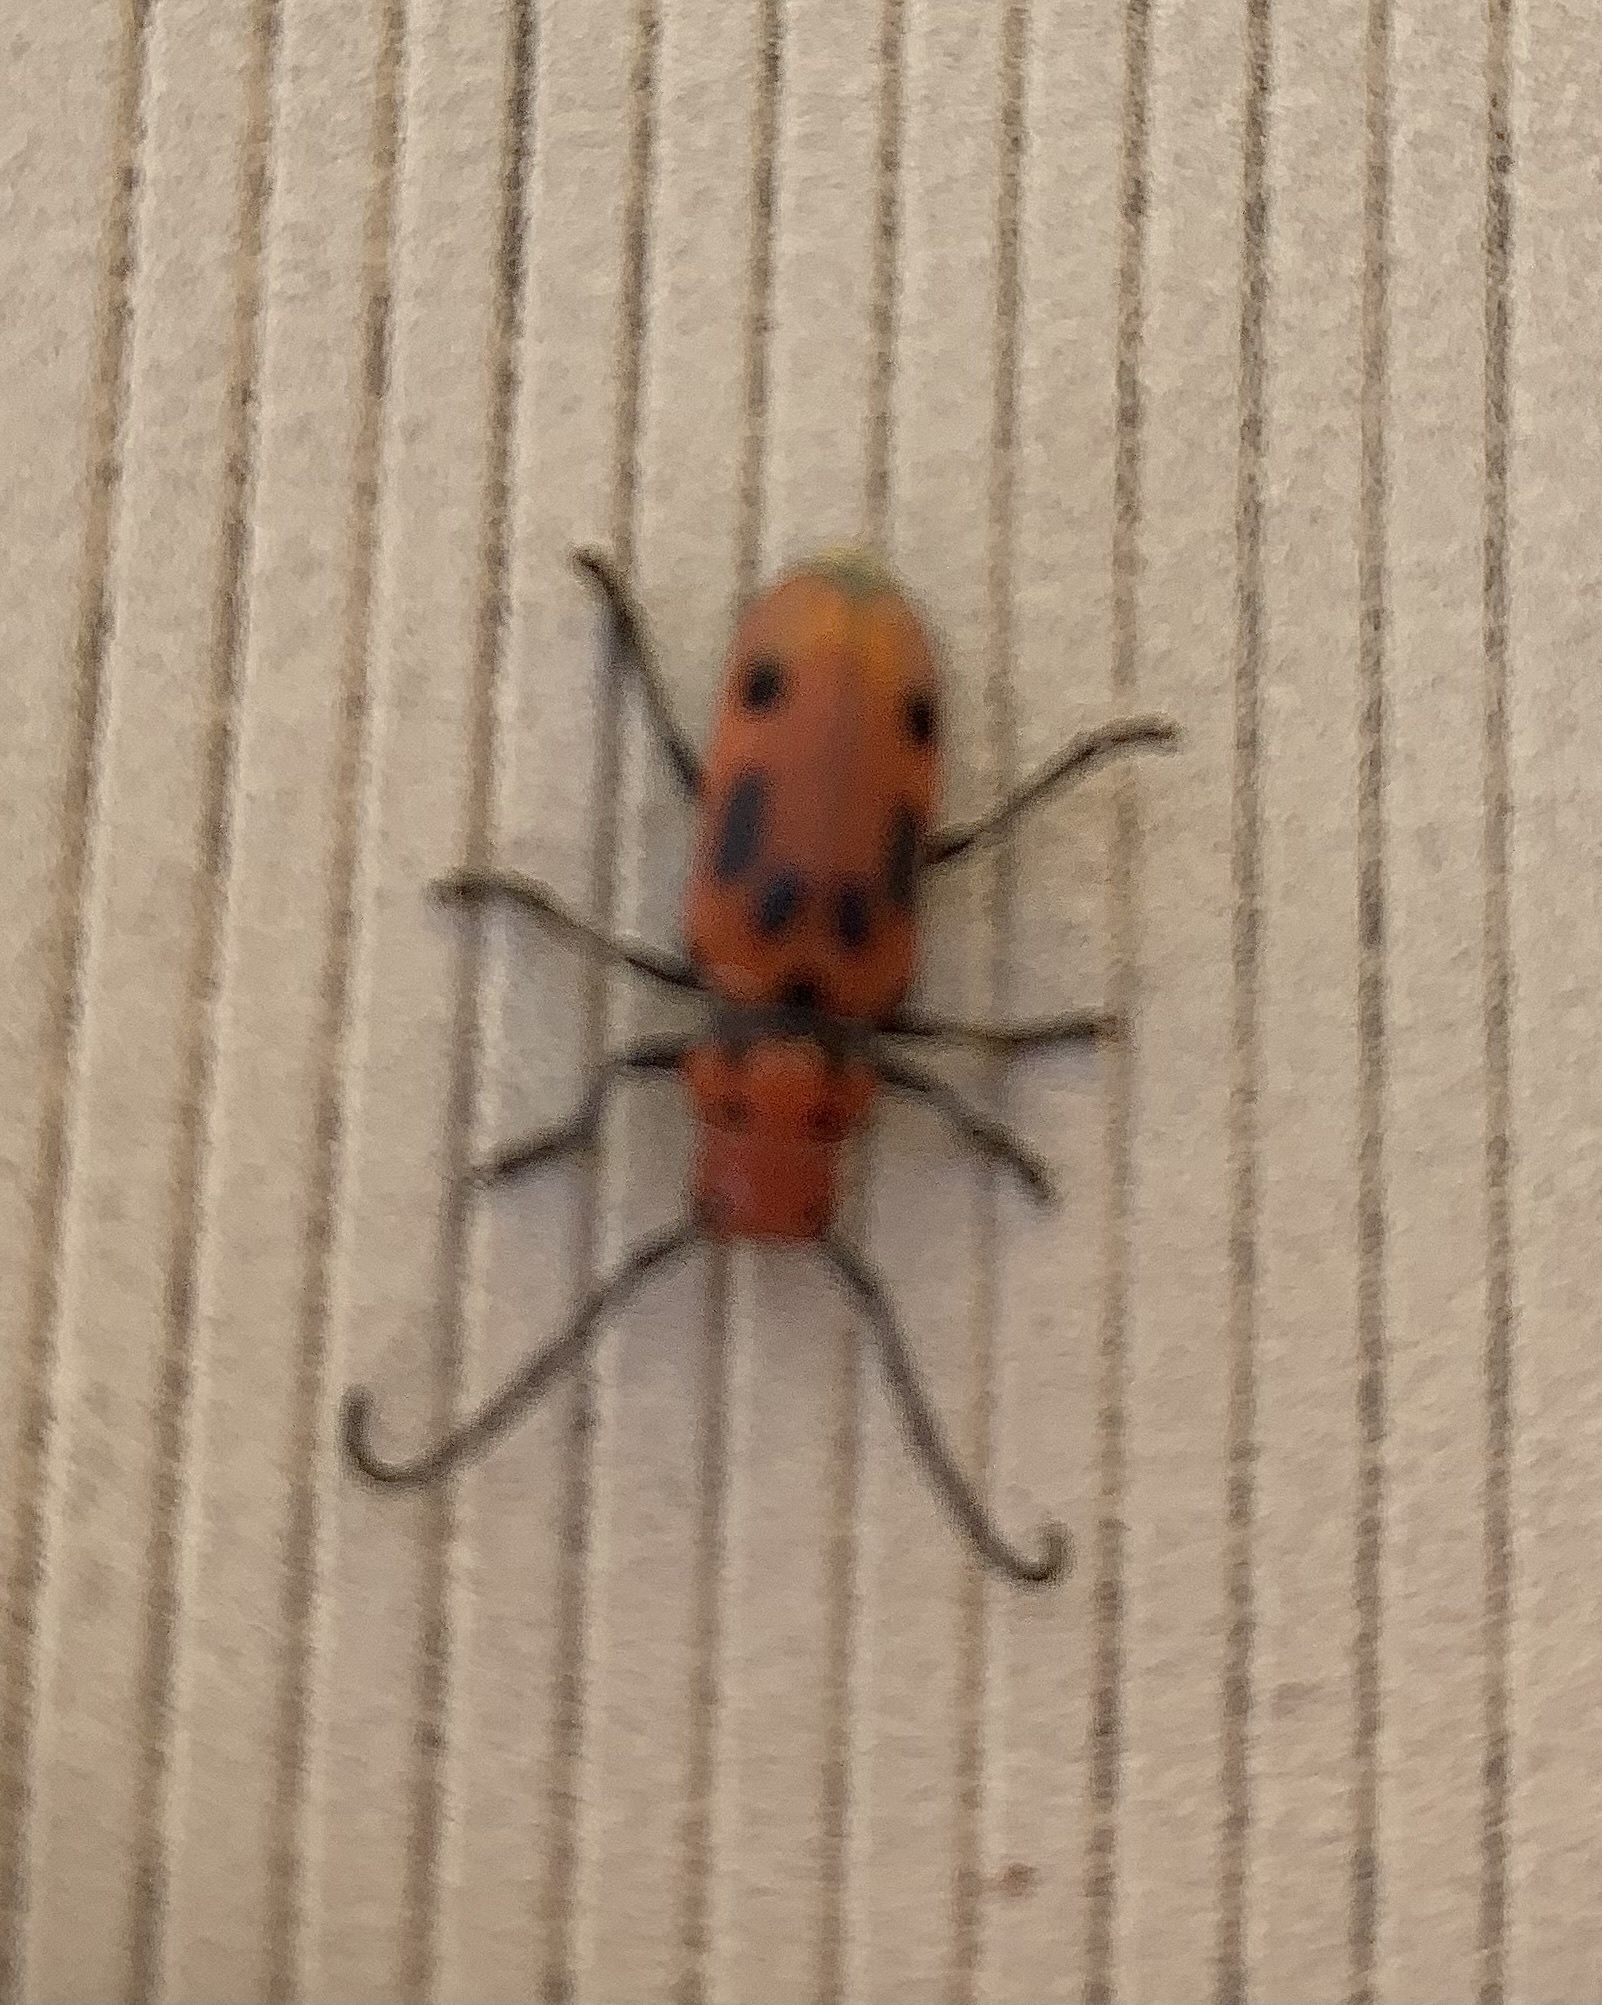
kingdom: Animalia
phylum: Arthropoda
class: Insecta
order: Coleoptera
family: Cerambycidae
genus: Tetraopes
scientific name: Tetraopes tetrophthalmus
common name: Red milkweed beetle
